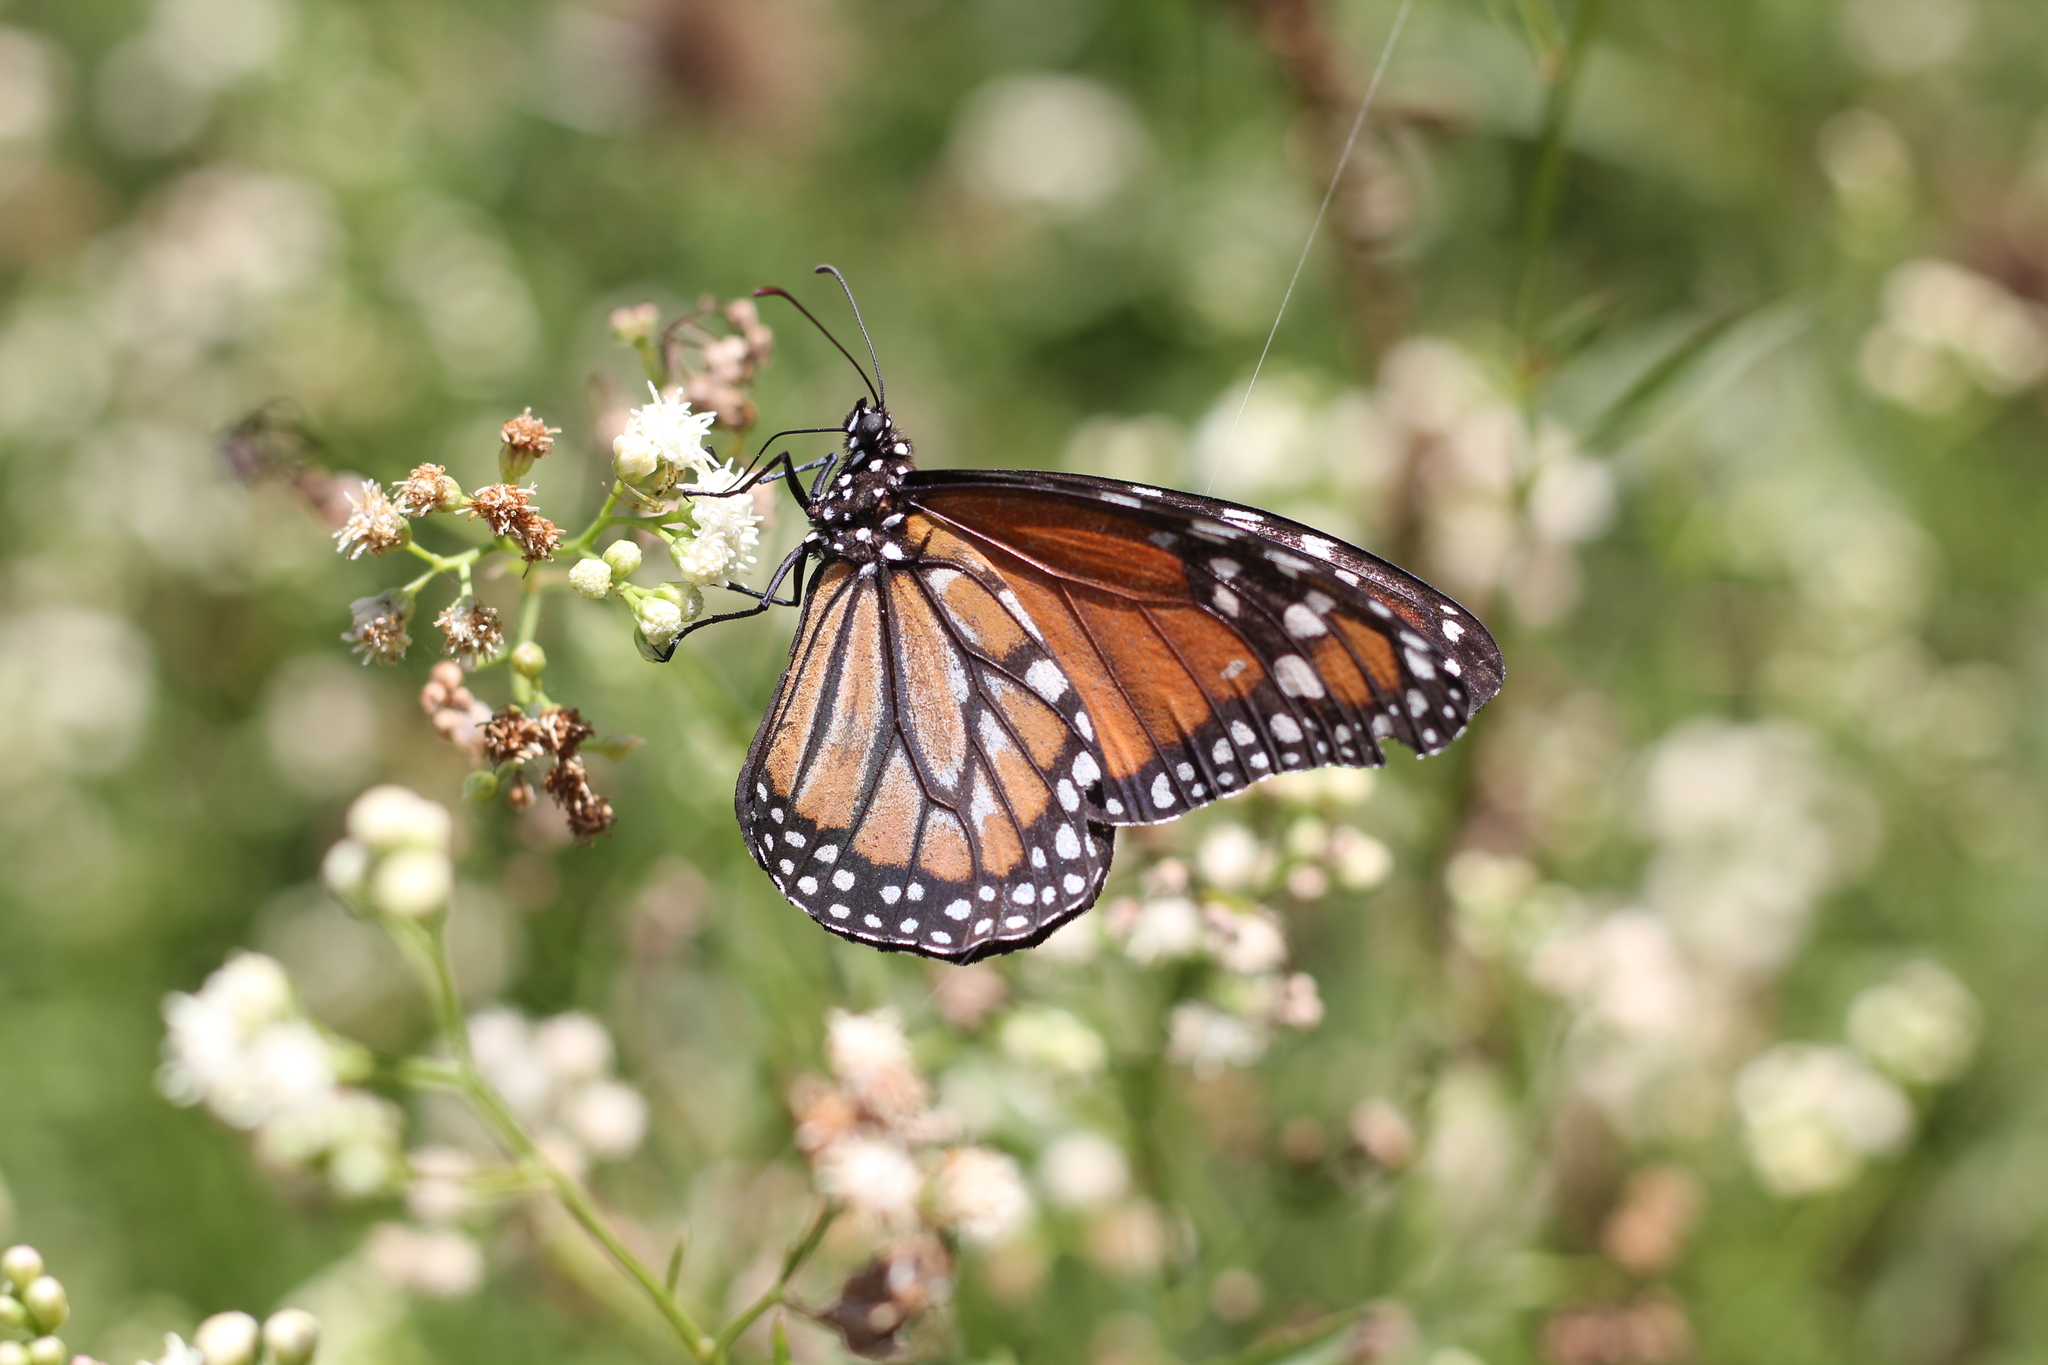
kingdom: Animalia
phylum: Arthropoda
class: Insecta
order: Lepidoptera
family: Nymphalidae
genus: Danaus
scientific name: Danaus erippus
